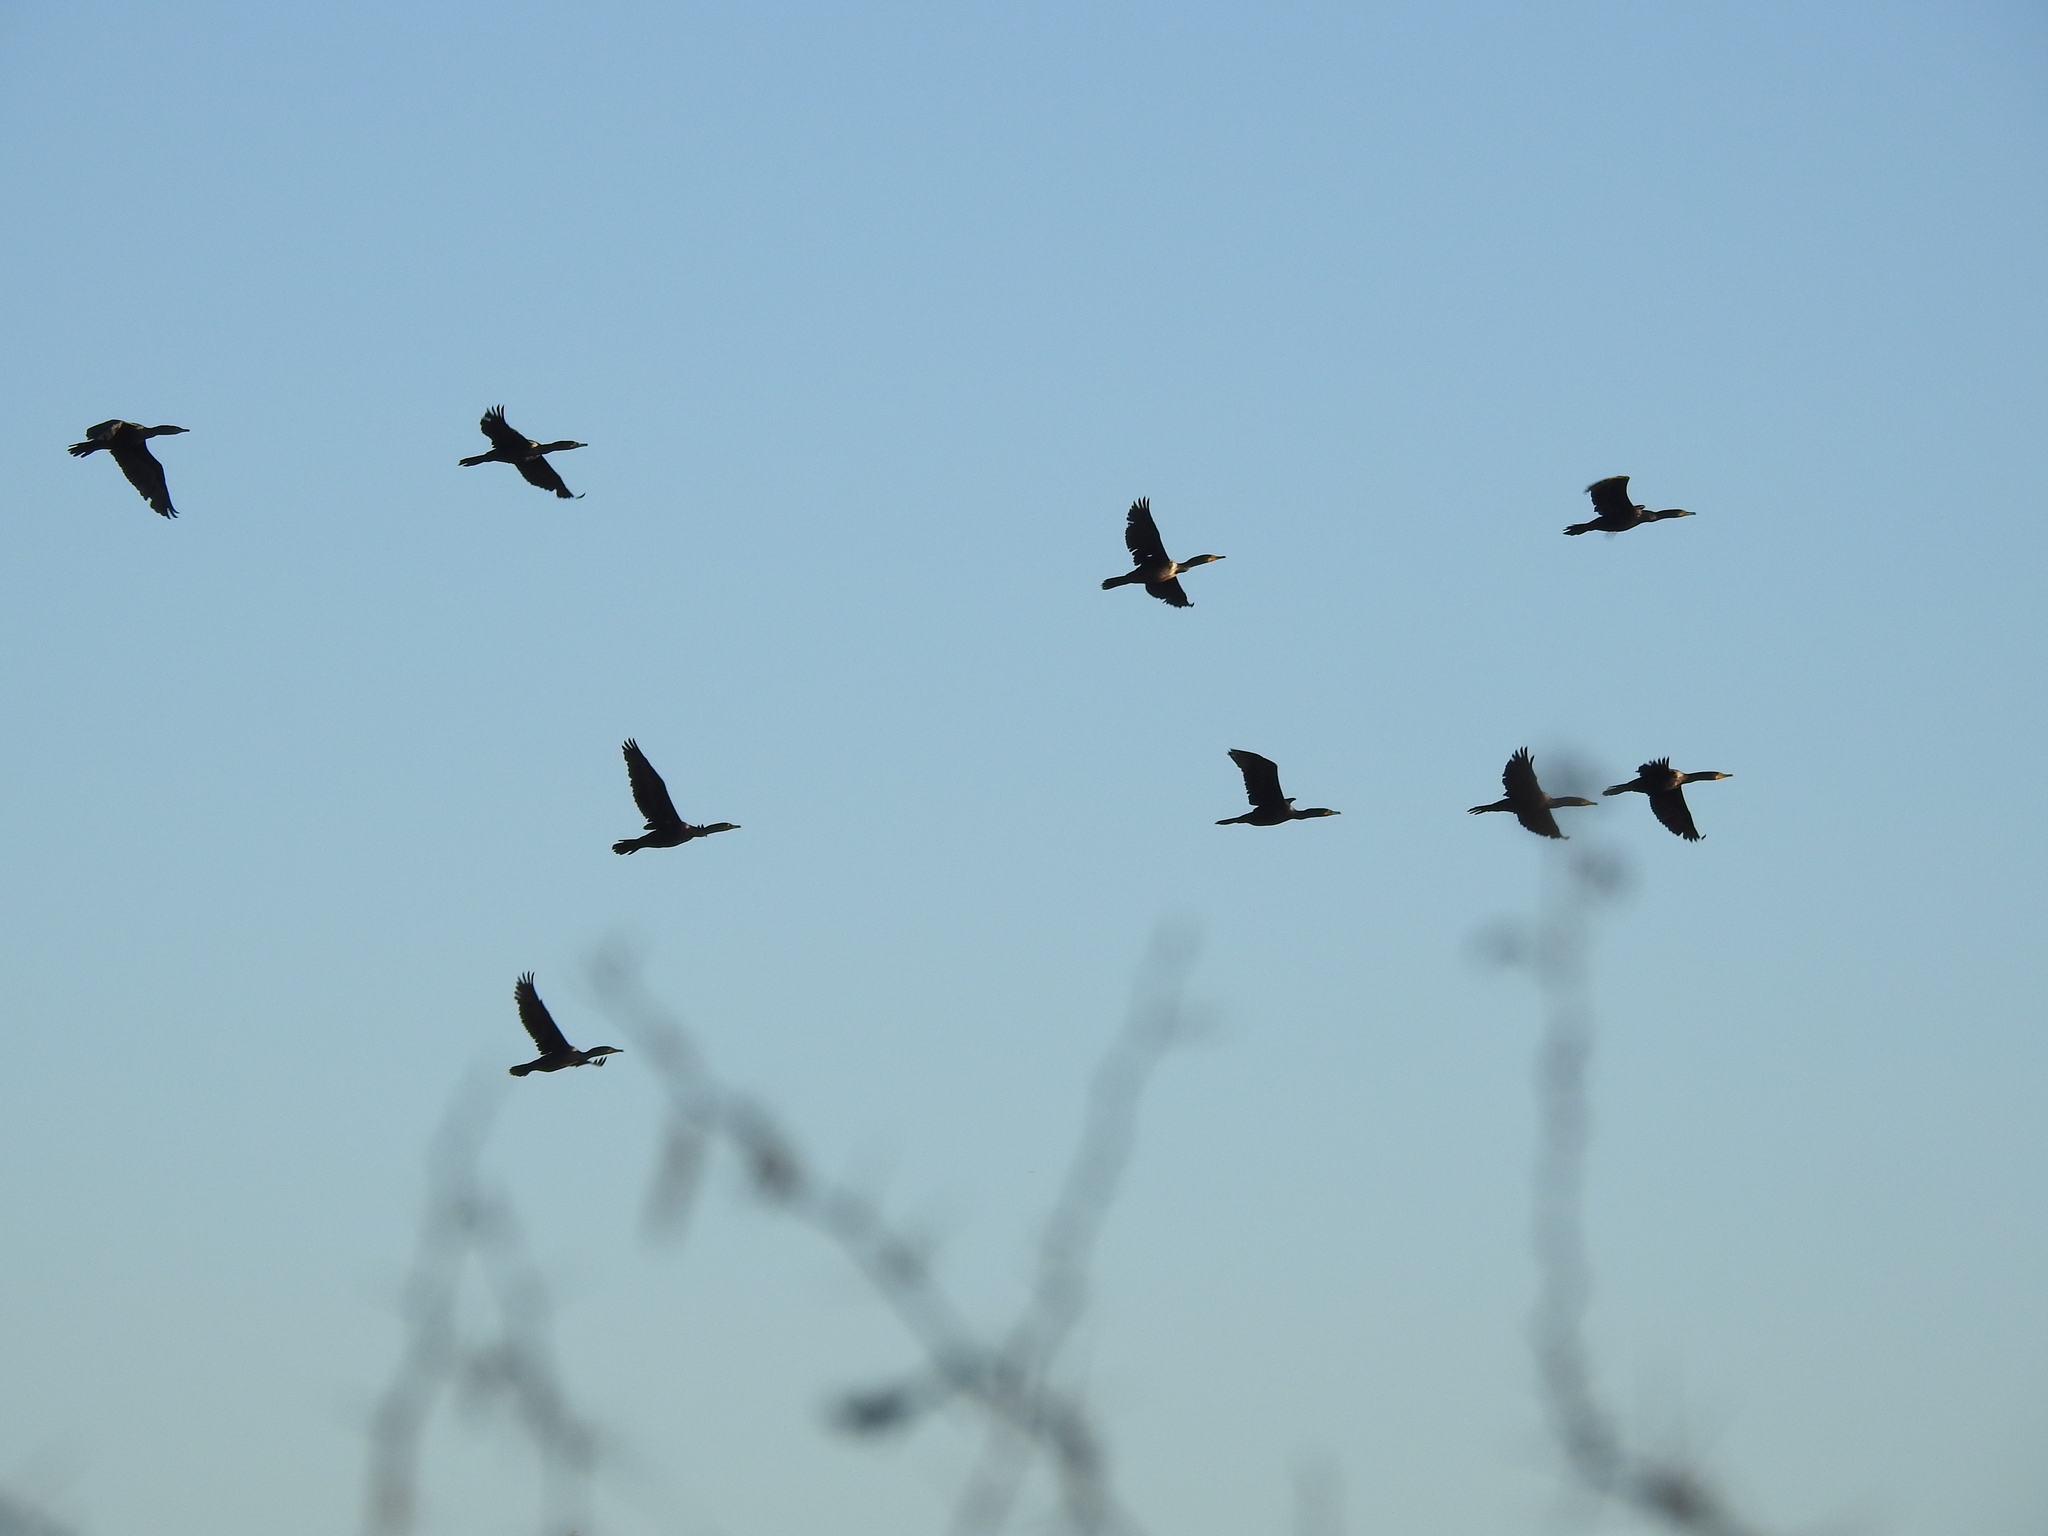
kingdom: Animalia
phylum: Chordata
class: Aves
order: Suliformes
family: Phalacrocoracidae
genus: Phalacrocorax
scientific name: Phalacrocorax auritus
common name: Double-crested cormorant
